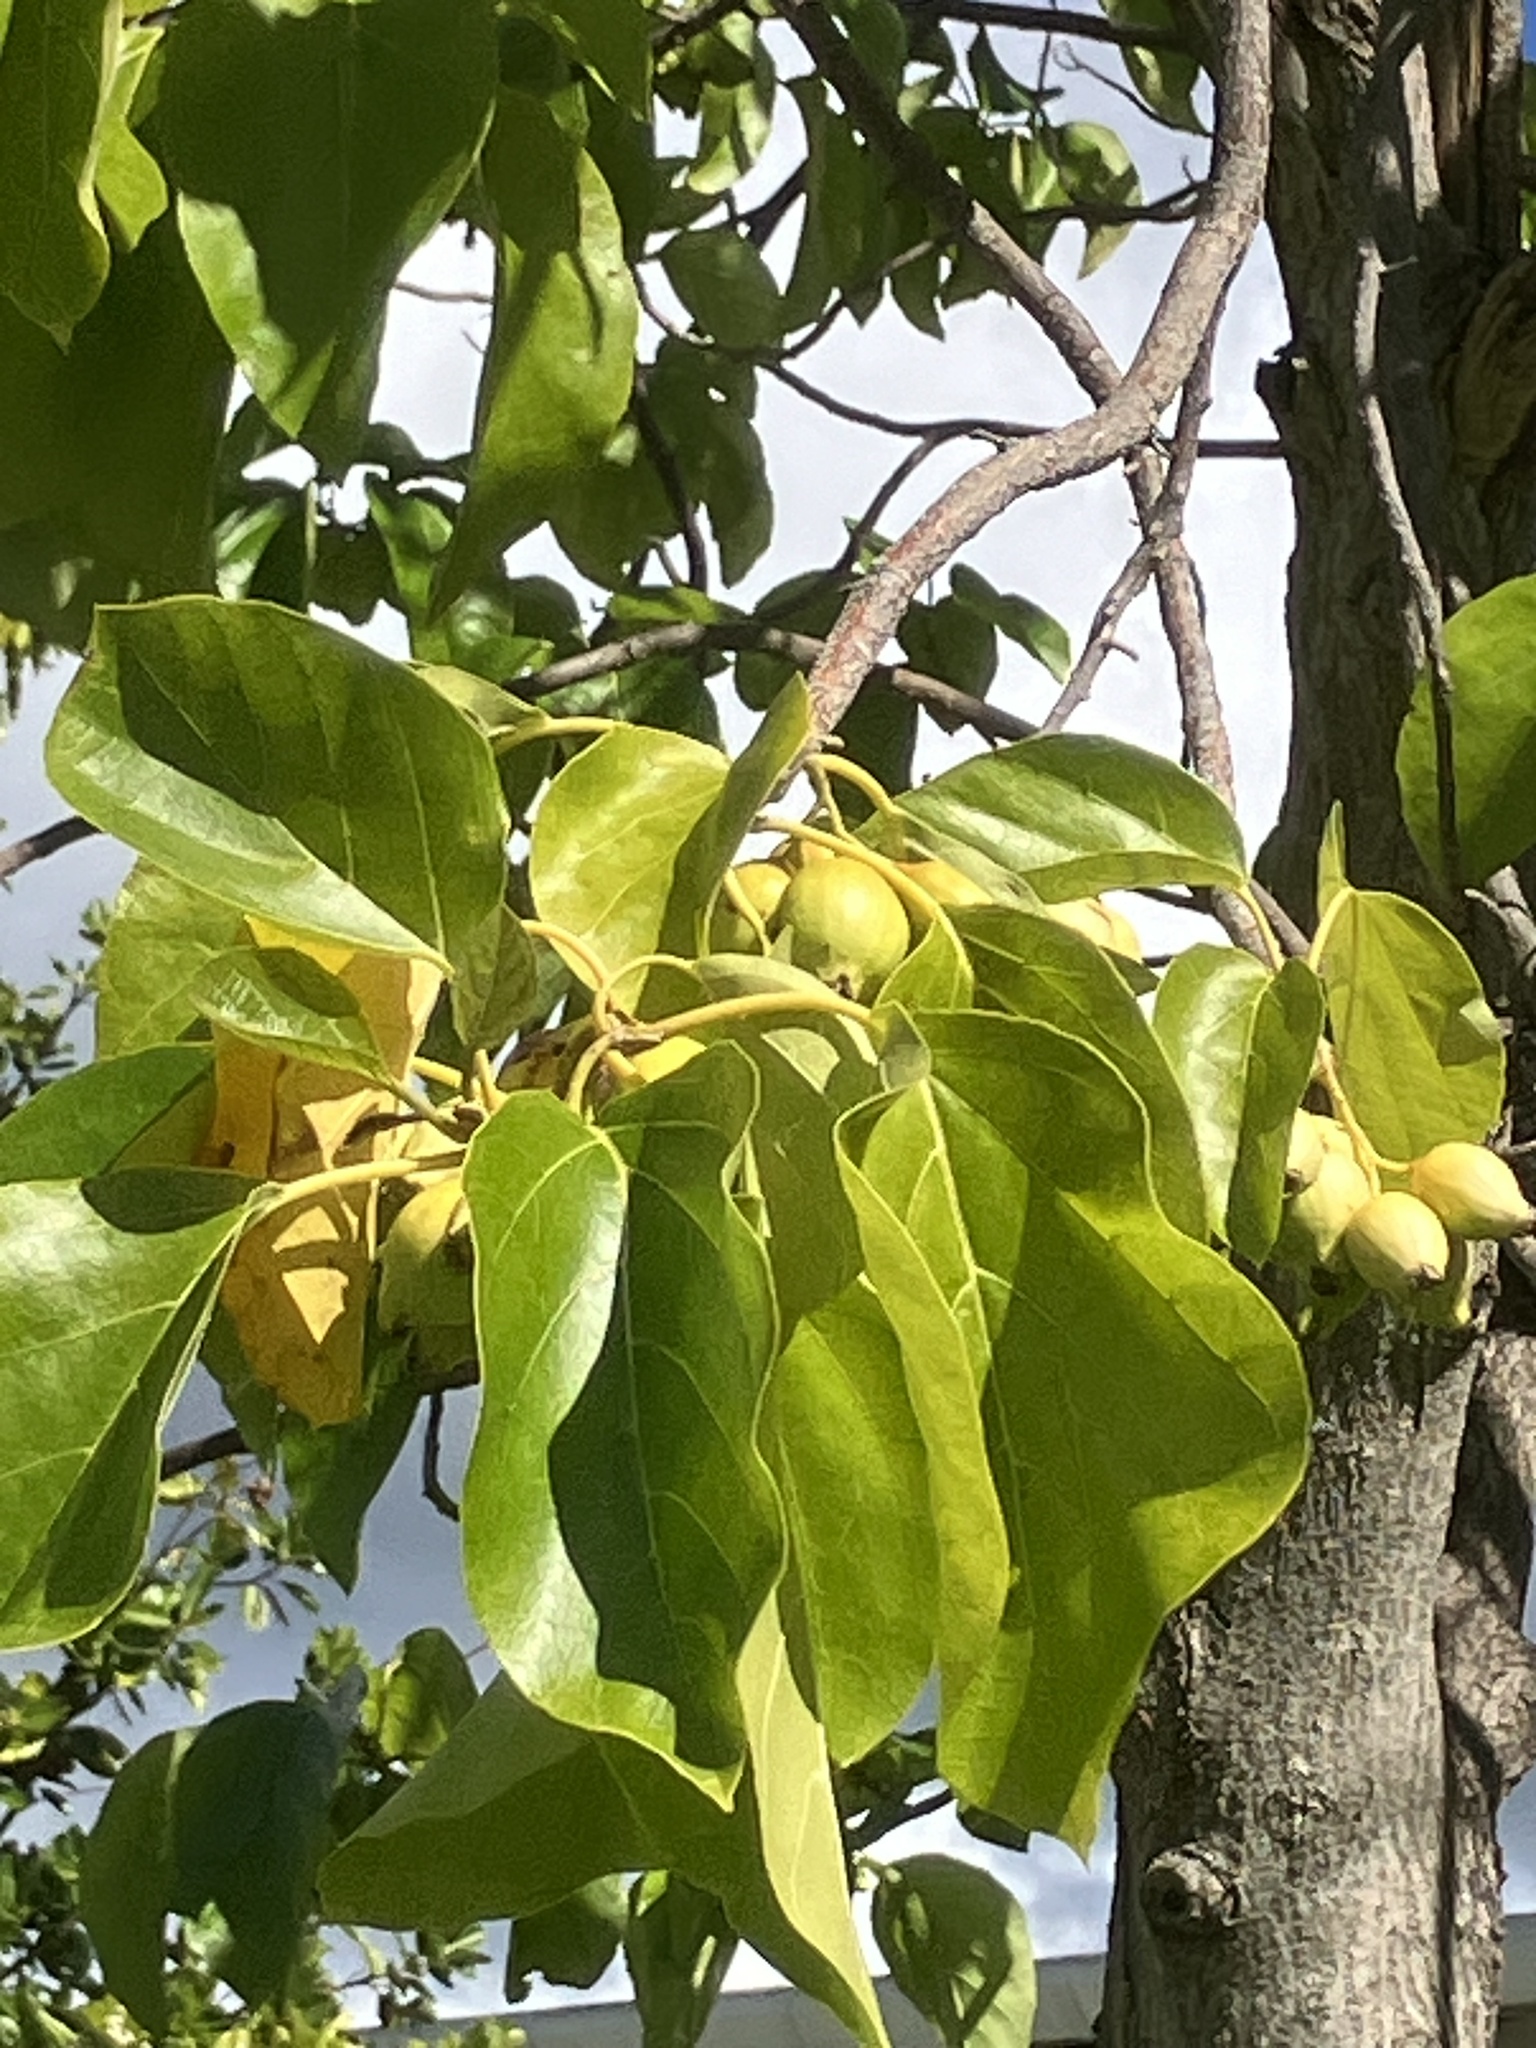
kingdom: Plantae
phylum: Tracheophyta
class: Magnoliopsida
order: Boraginales
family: Cordiaceae
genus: Cordia
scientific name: Cordia subcordata
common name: Mareer
